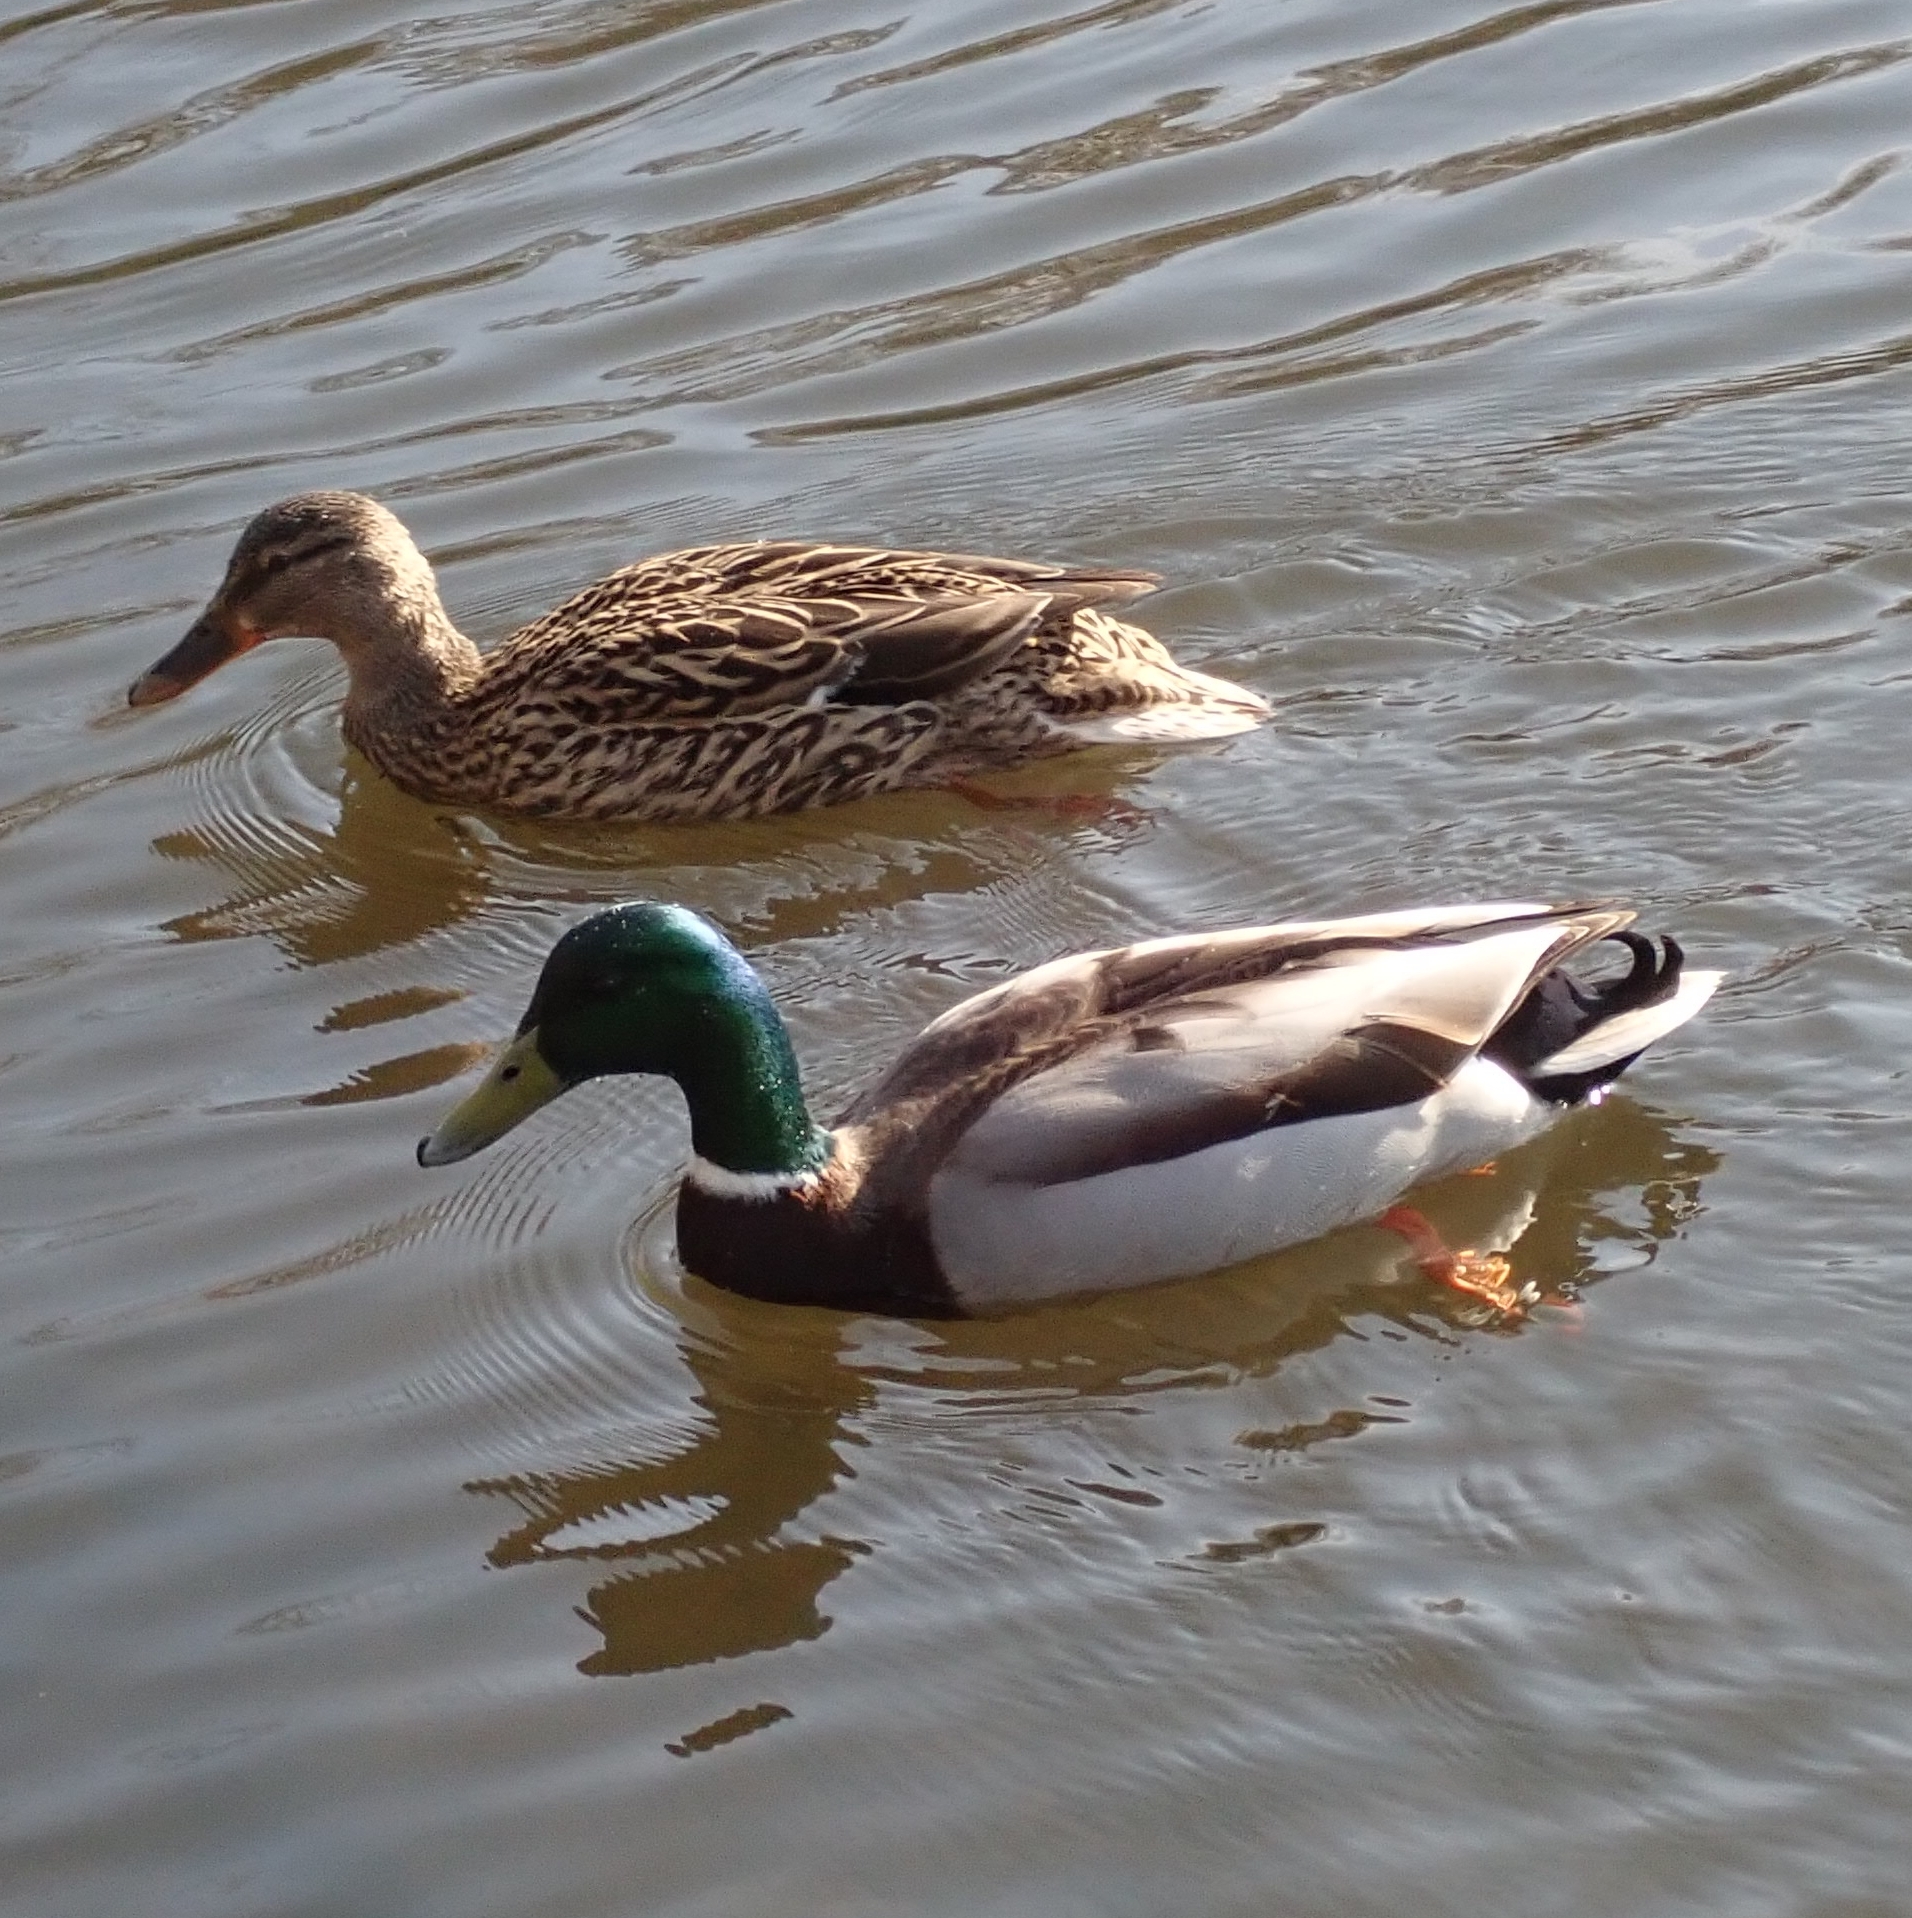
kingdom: Animalia
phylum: Chordata
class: Aves
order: Anseriformes
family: Anatidae
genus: Anas
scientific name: Anas platyrhynchos
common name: Mallard
